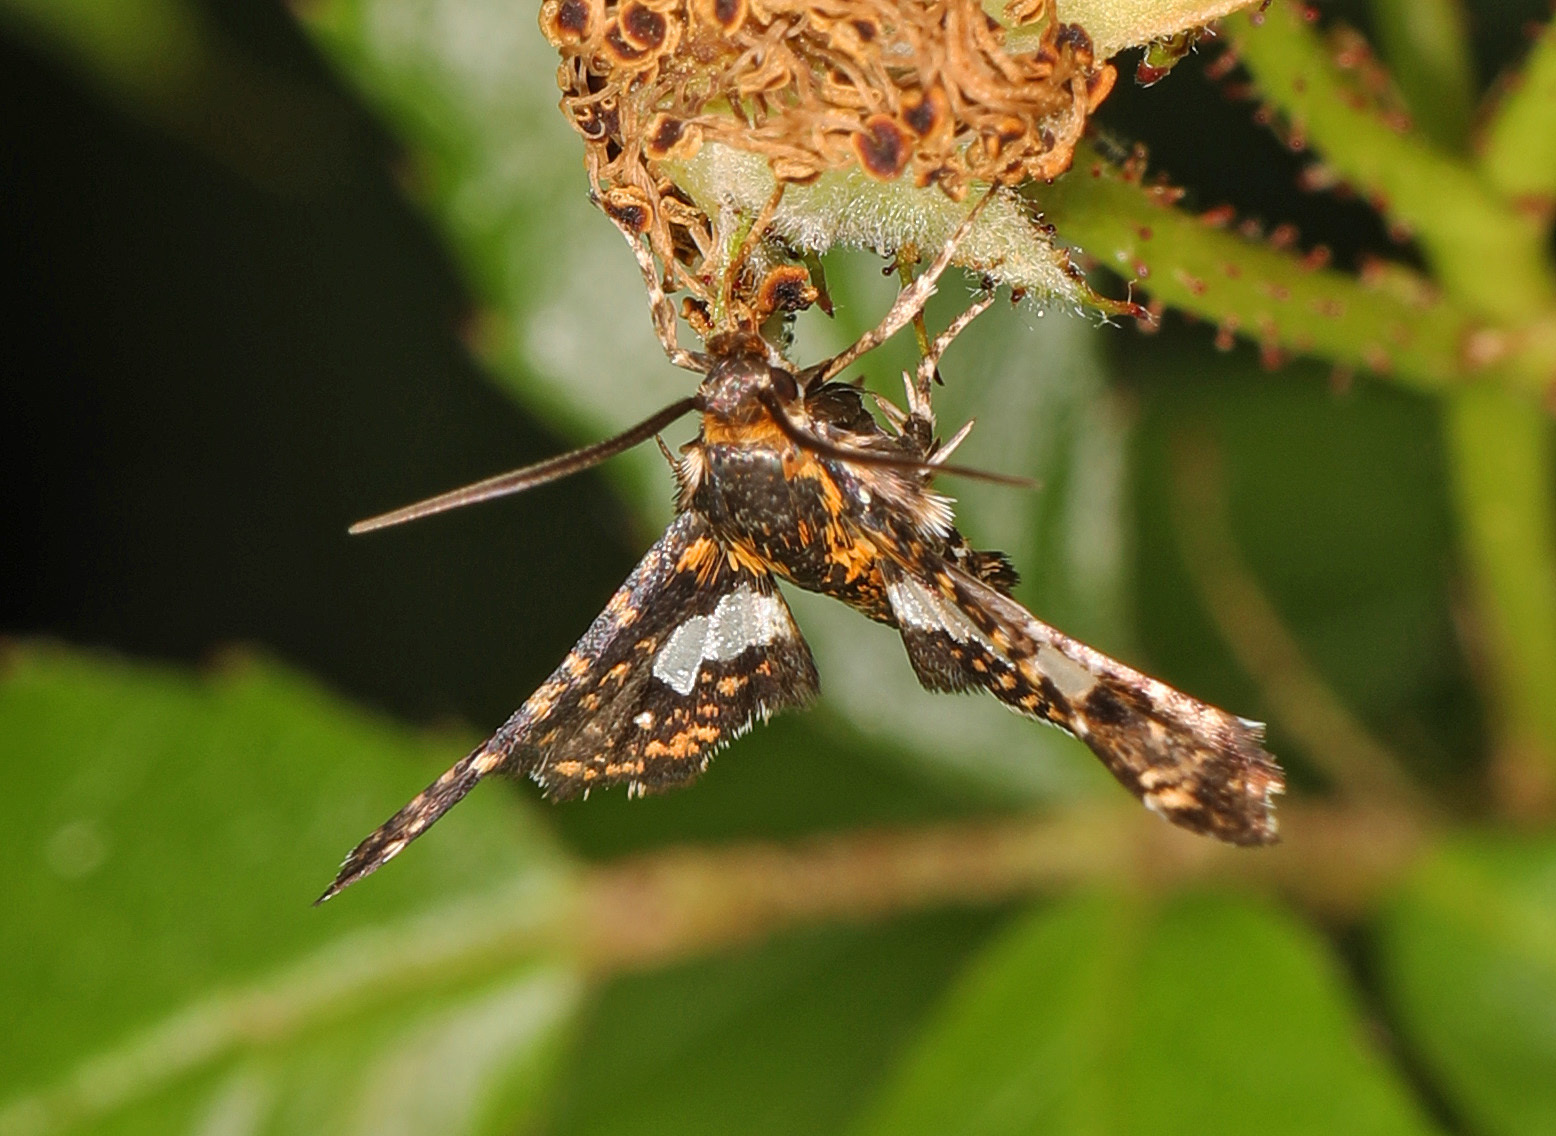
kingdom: Animalia
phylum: Arthropoda
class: Insecta
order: Lepidoptera
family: Thyrididae
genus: Thyris
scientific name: Thyris maculata
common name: Spotted thyris moth
